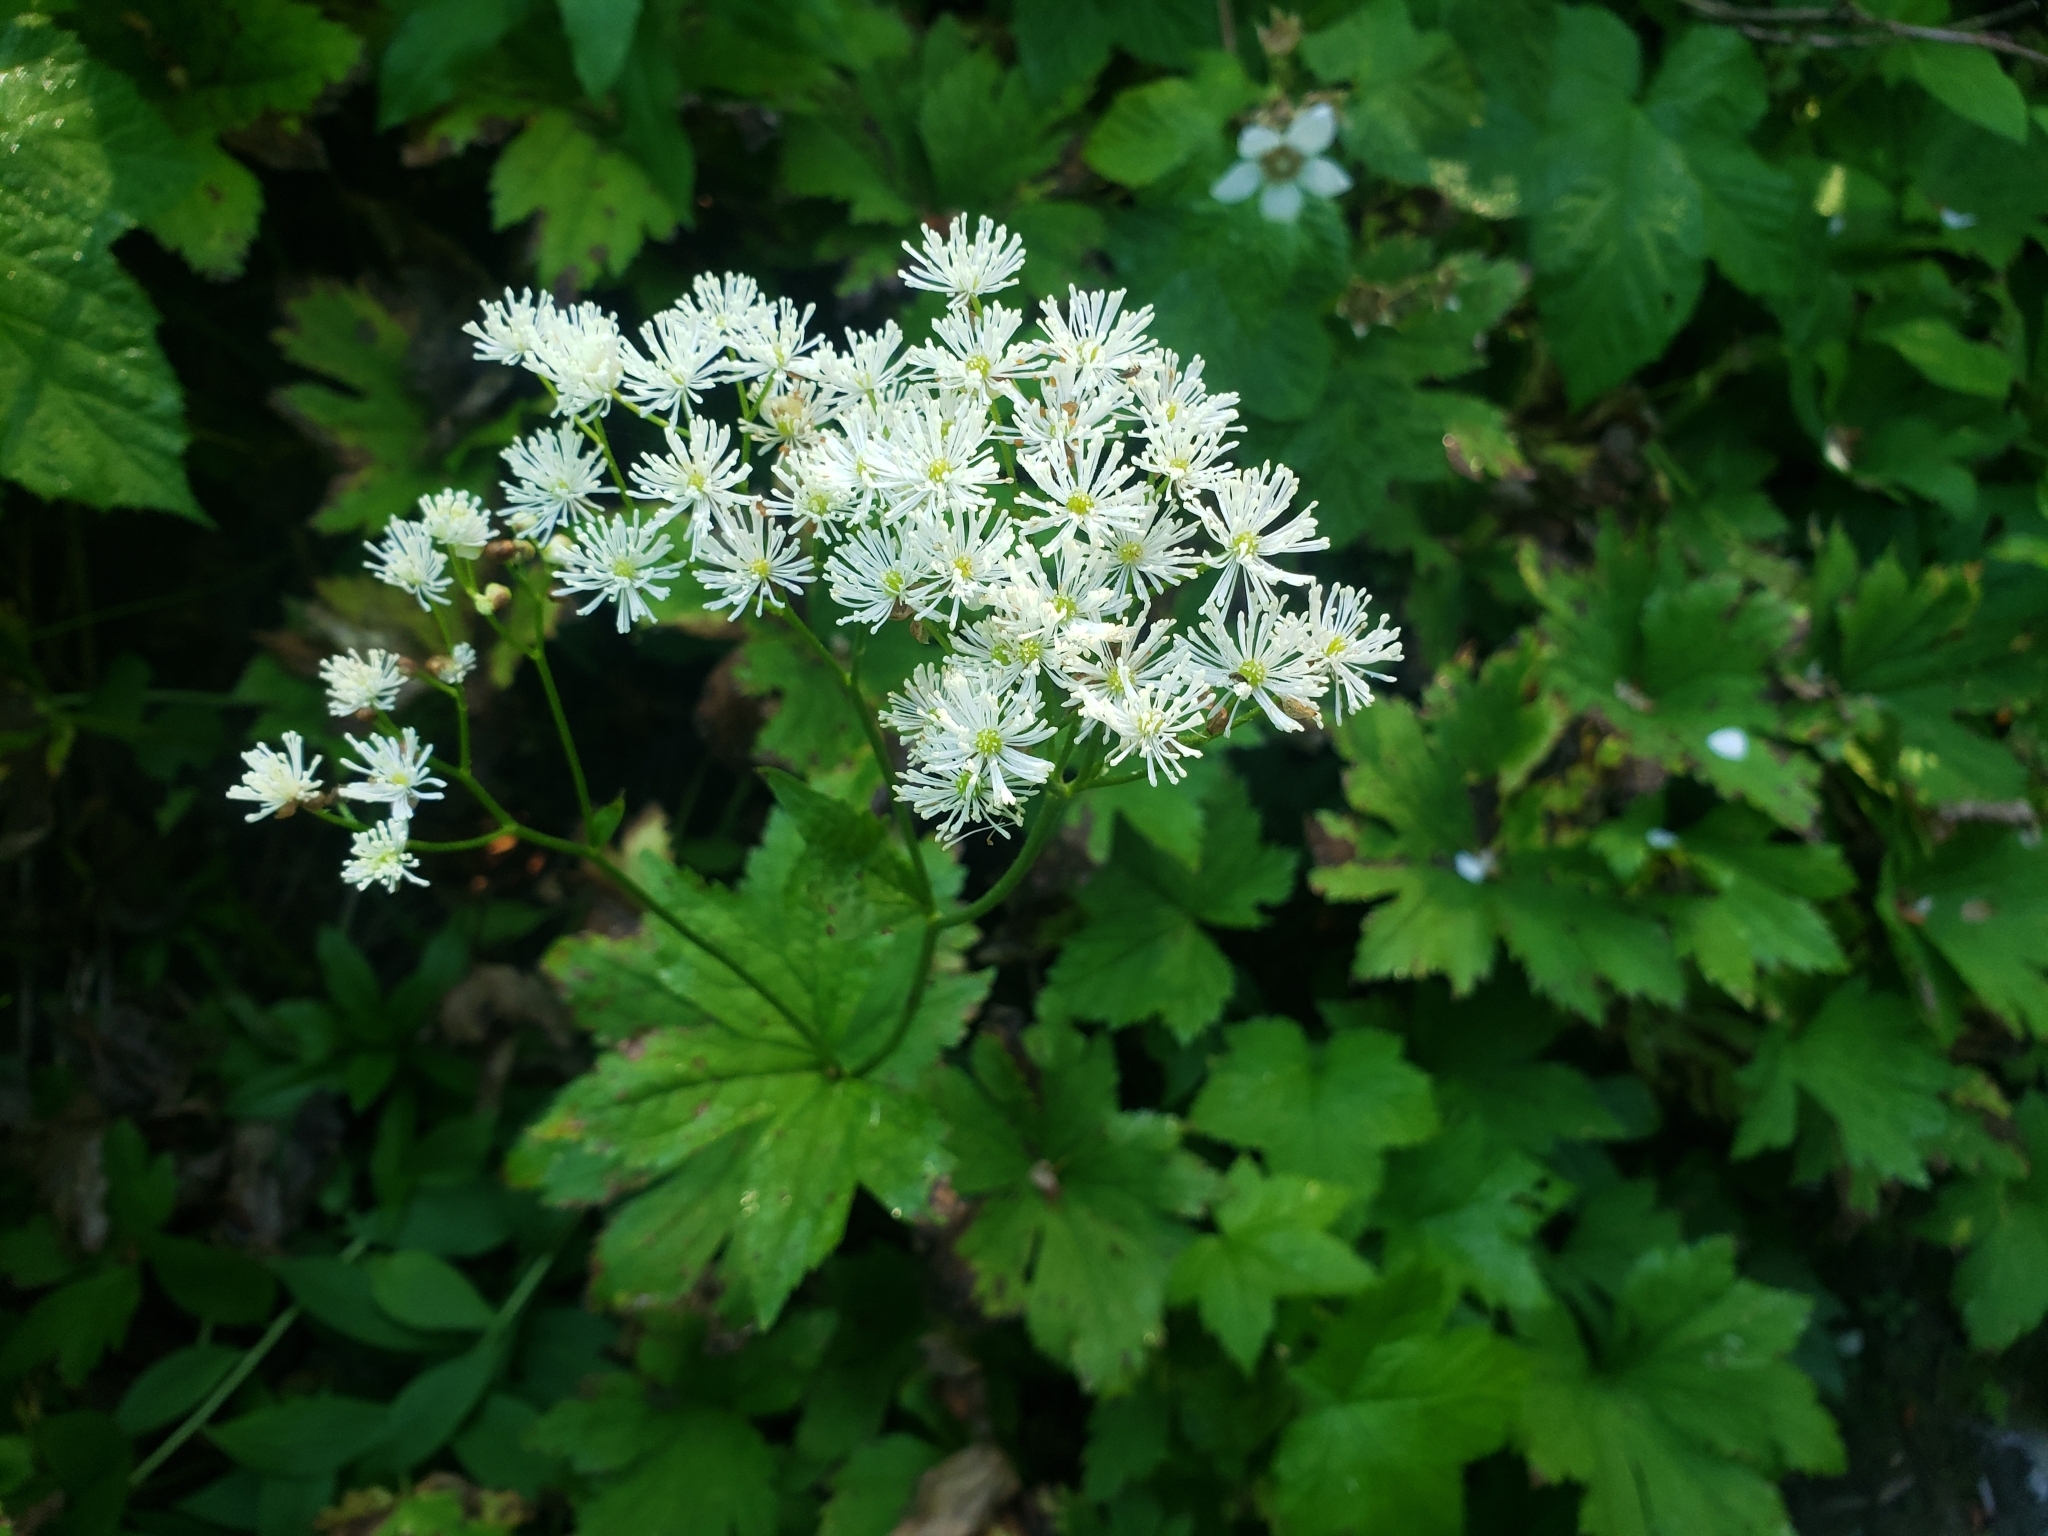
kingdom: Plantae
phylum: Tracheophyta
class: Magnoliopsida
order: Ranunculales
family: Ranunculaceae
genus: Trautvetteria
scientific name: Trautvetteria carolinensis
